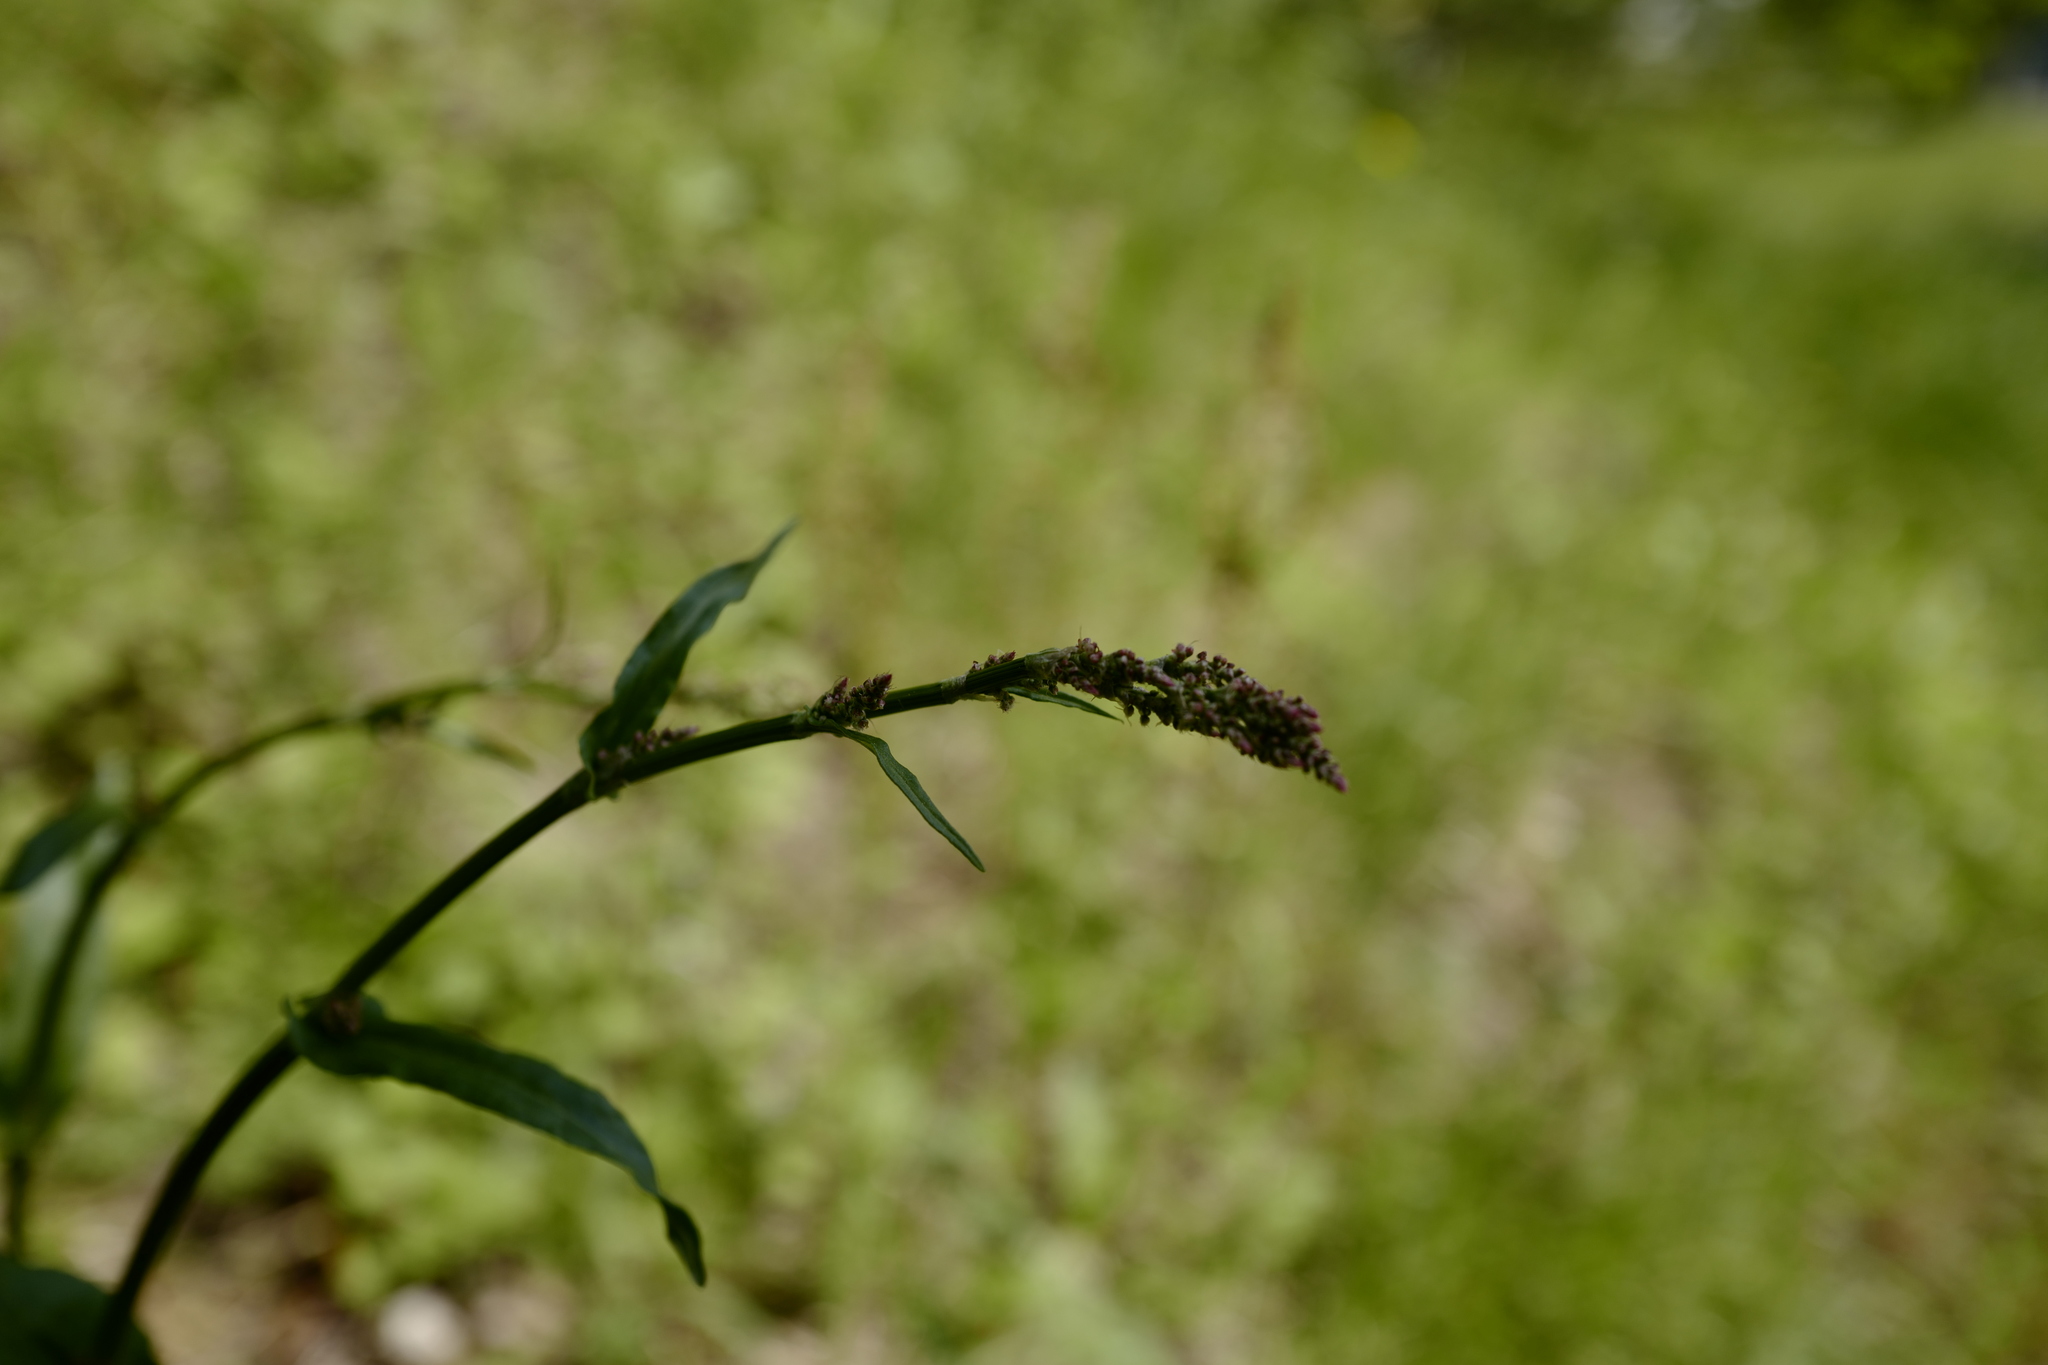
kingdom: Plantae
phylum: Tracheophyta
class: Magnoliopsida
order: Asterales
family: Asteraceae
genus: Petasites
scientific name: Petasites albus
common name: White butterbur
